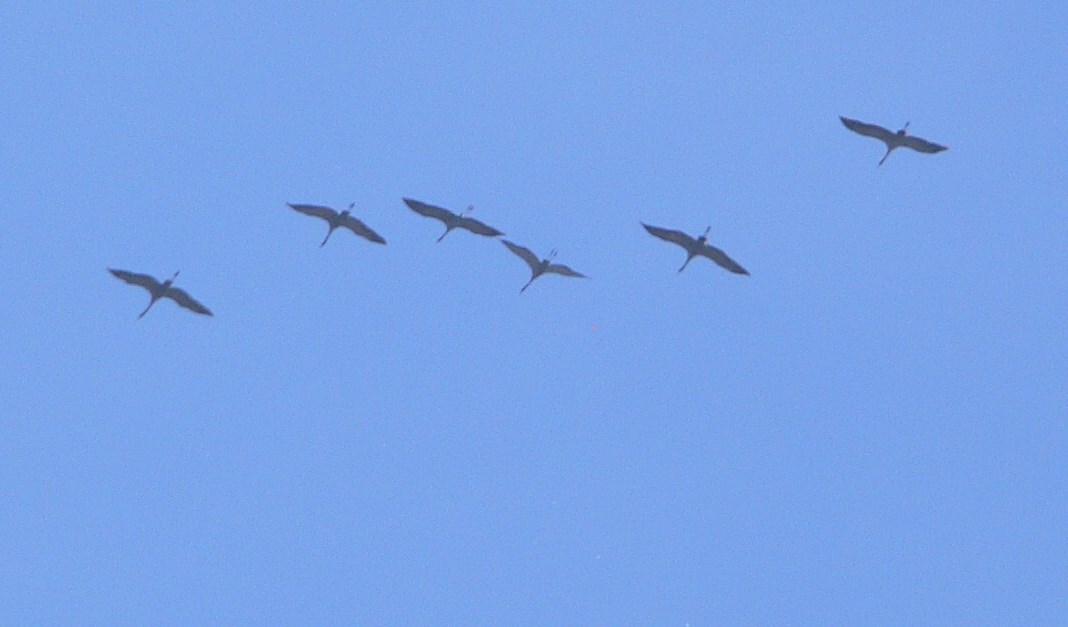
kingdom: Animalia
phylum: Chordata
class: Aves
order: Gruiformes
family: Gruidae
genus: Grus
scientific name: Grus grus
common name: Common crane
